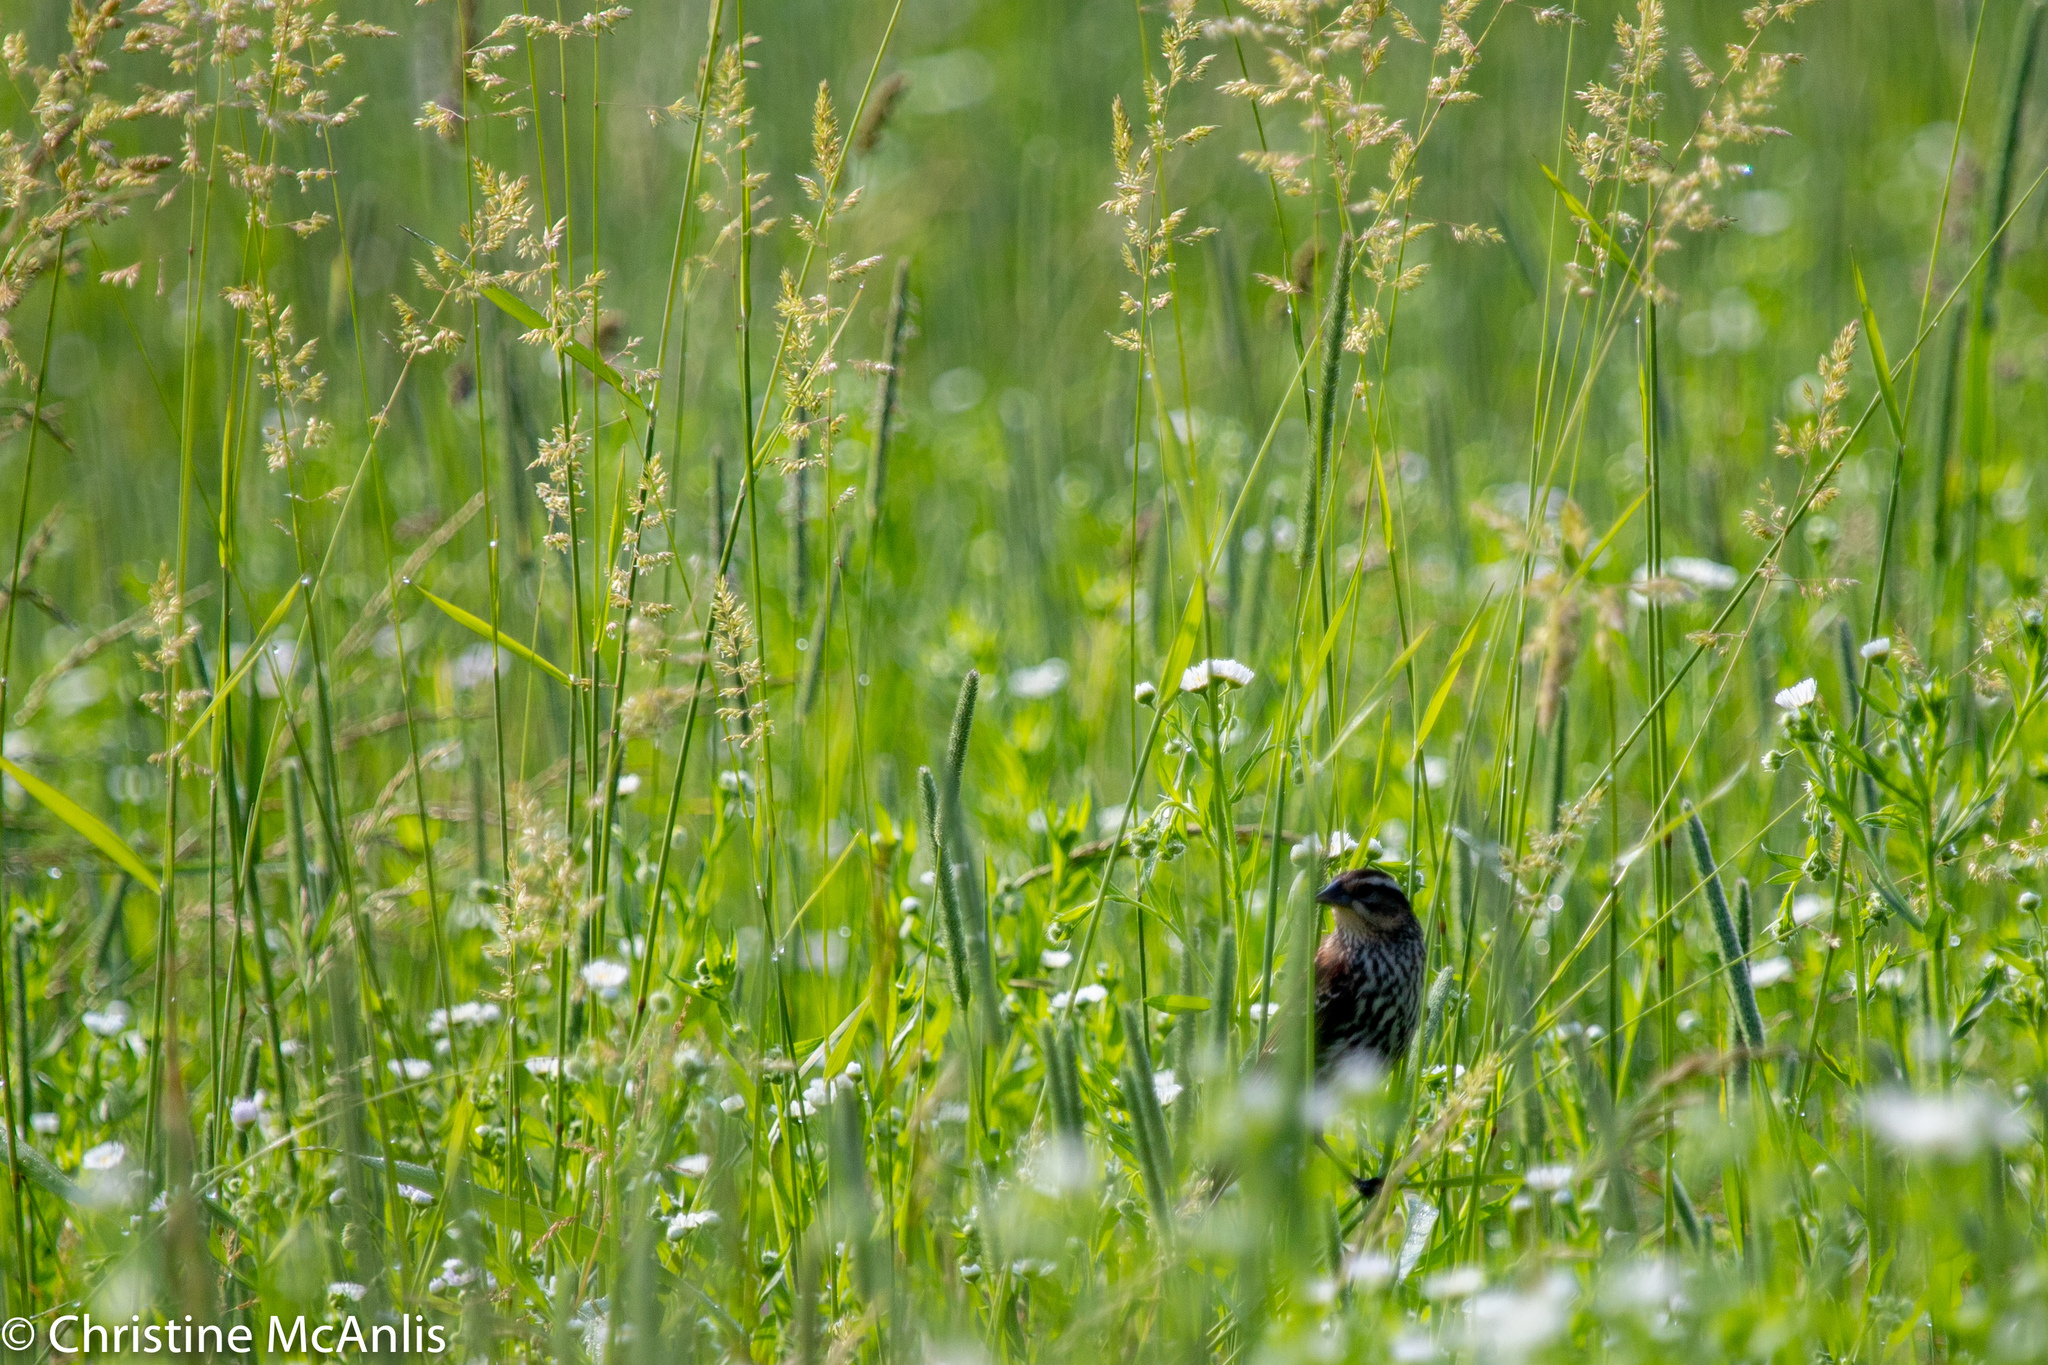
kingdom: Animalia
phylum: Chordata
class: Aves
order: Passeriformes
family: Icteridae
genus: Agelaius
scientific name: Agelaius phoeniceus
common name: Red-winged blackbird
